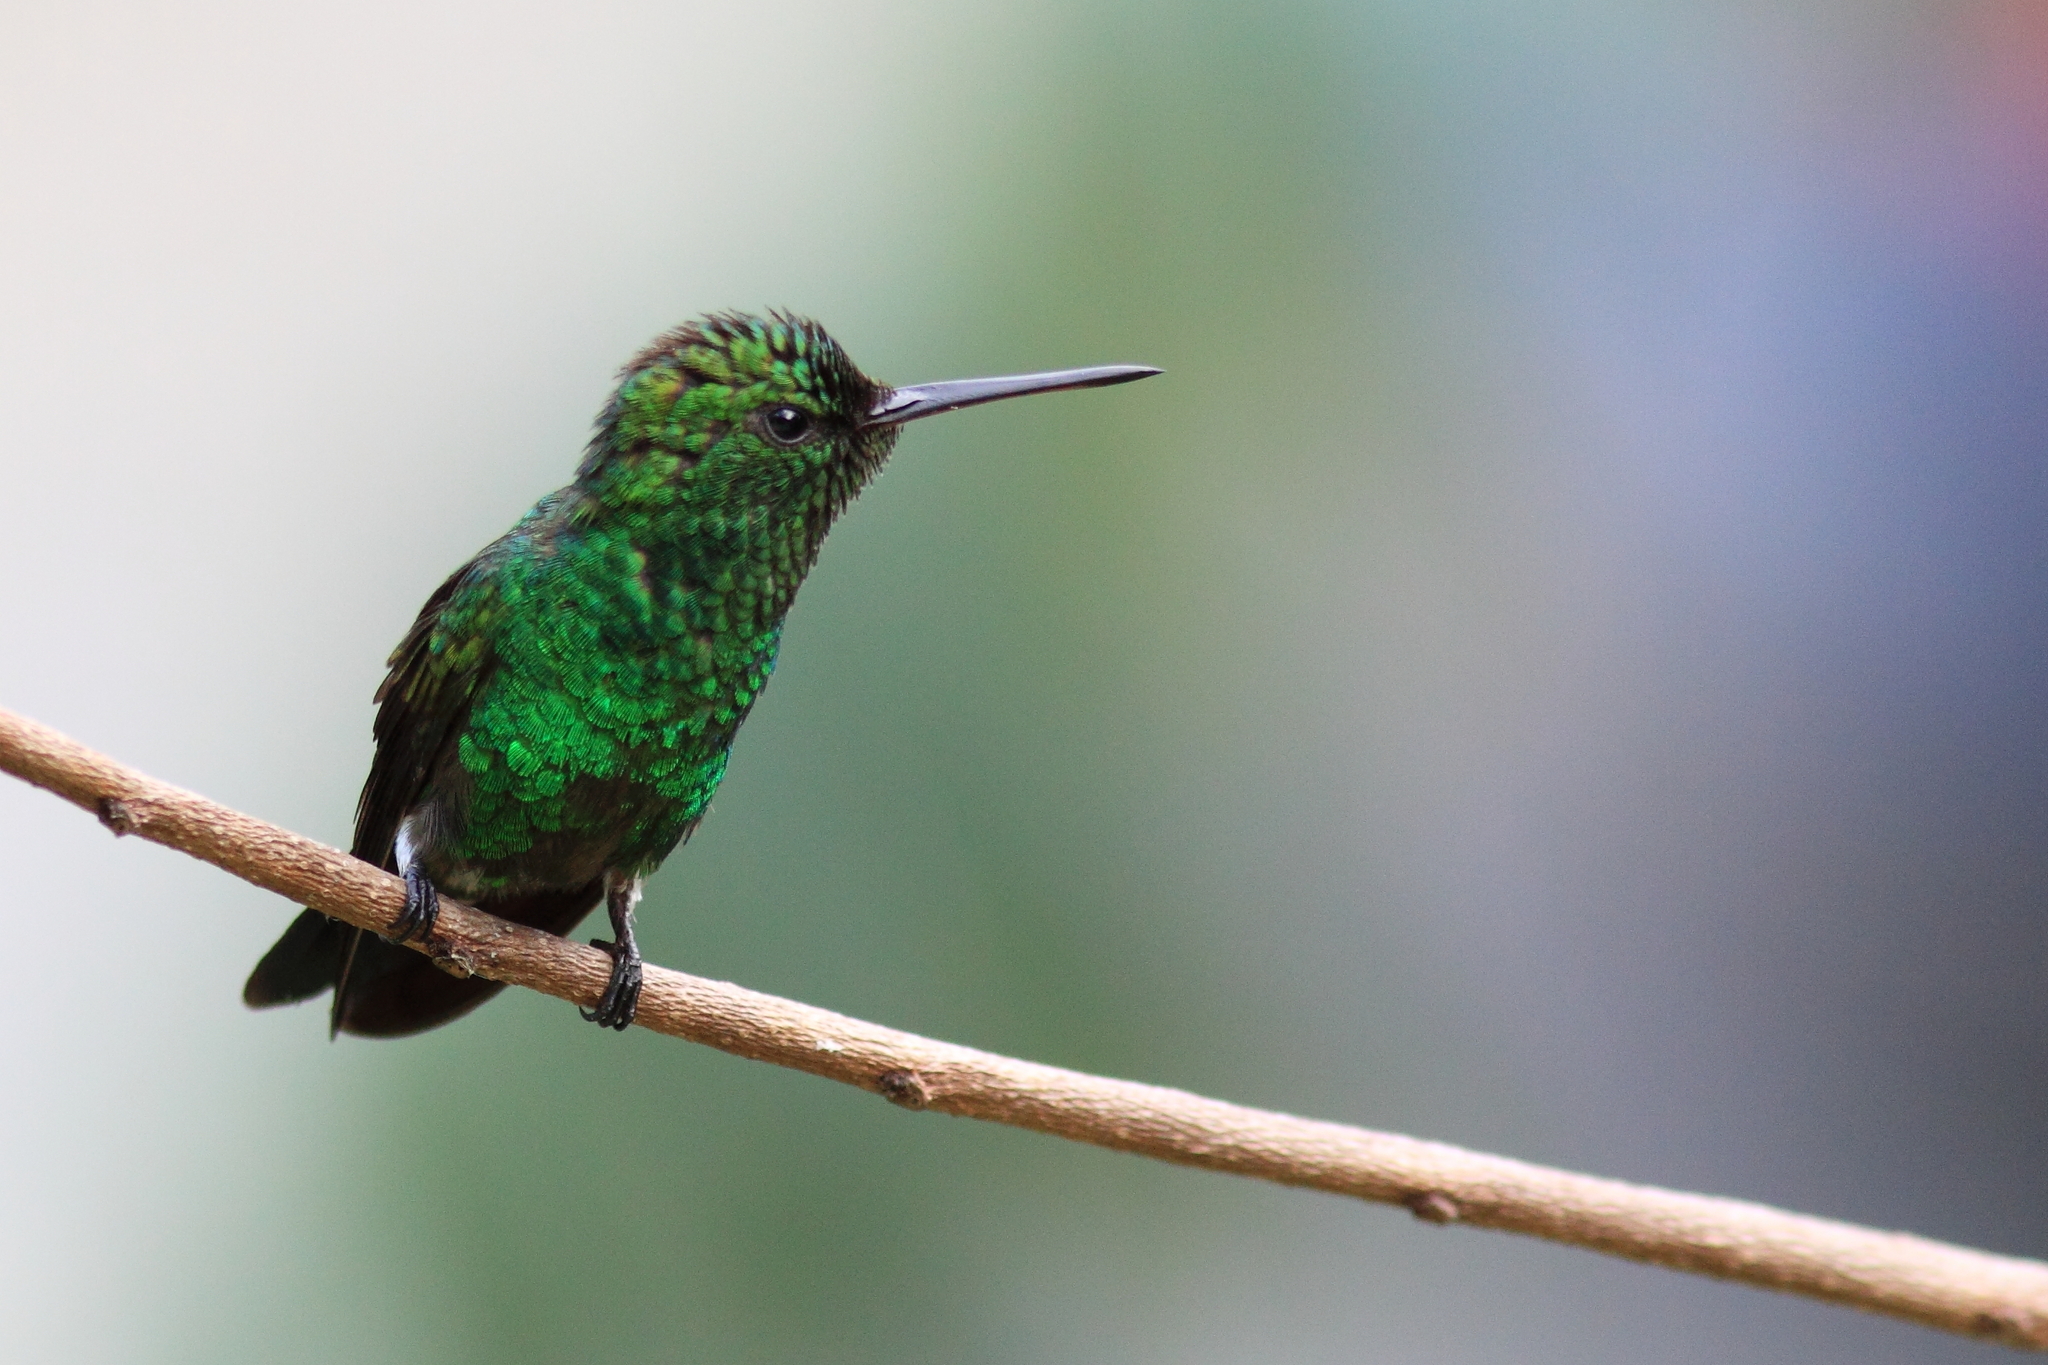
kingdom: Animalia
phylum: Chordata
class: Aves
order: Apodiformes
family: Trochilidae
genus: Saucerottia
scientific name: Saucerottia tobaci
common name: Copper-rumped hummingbird
